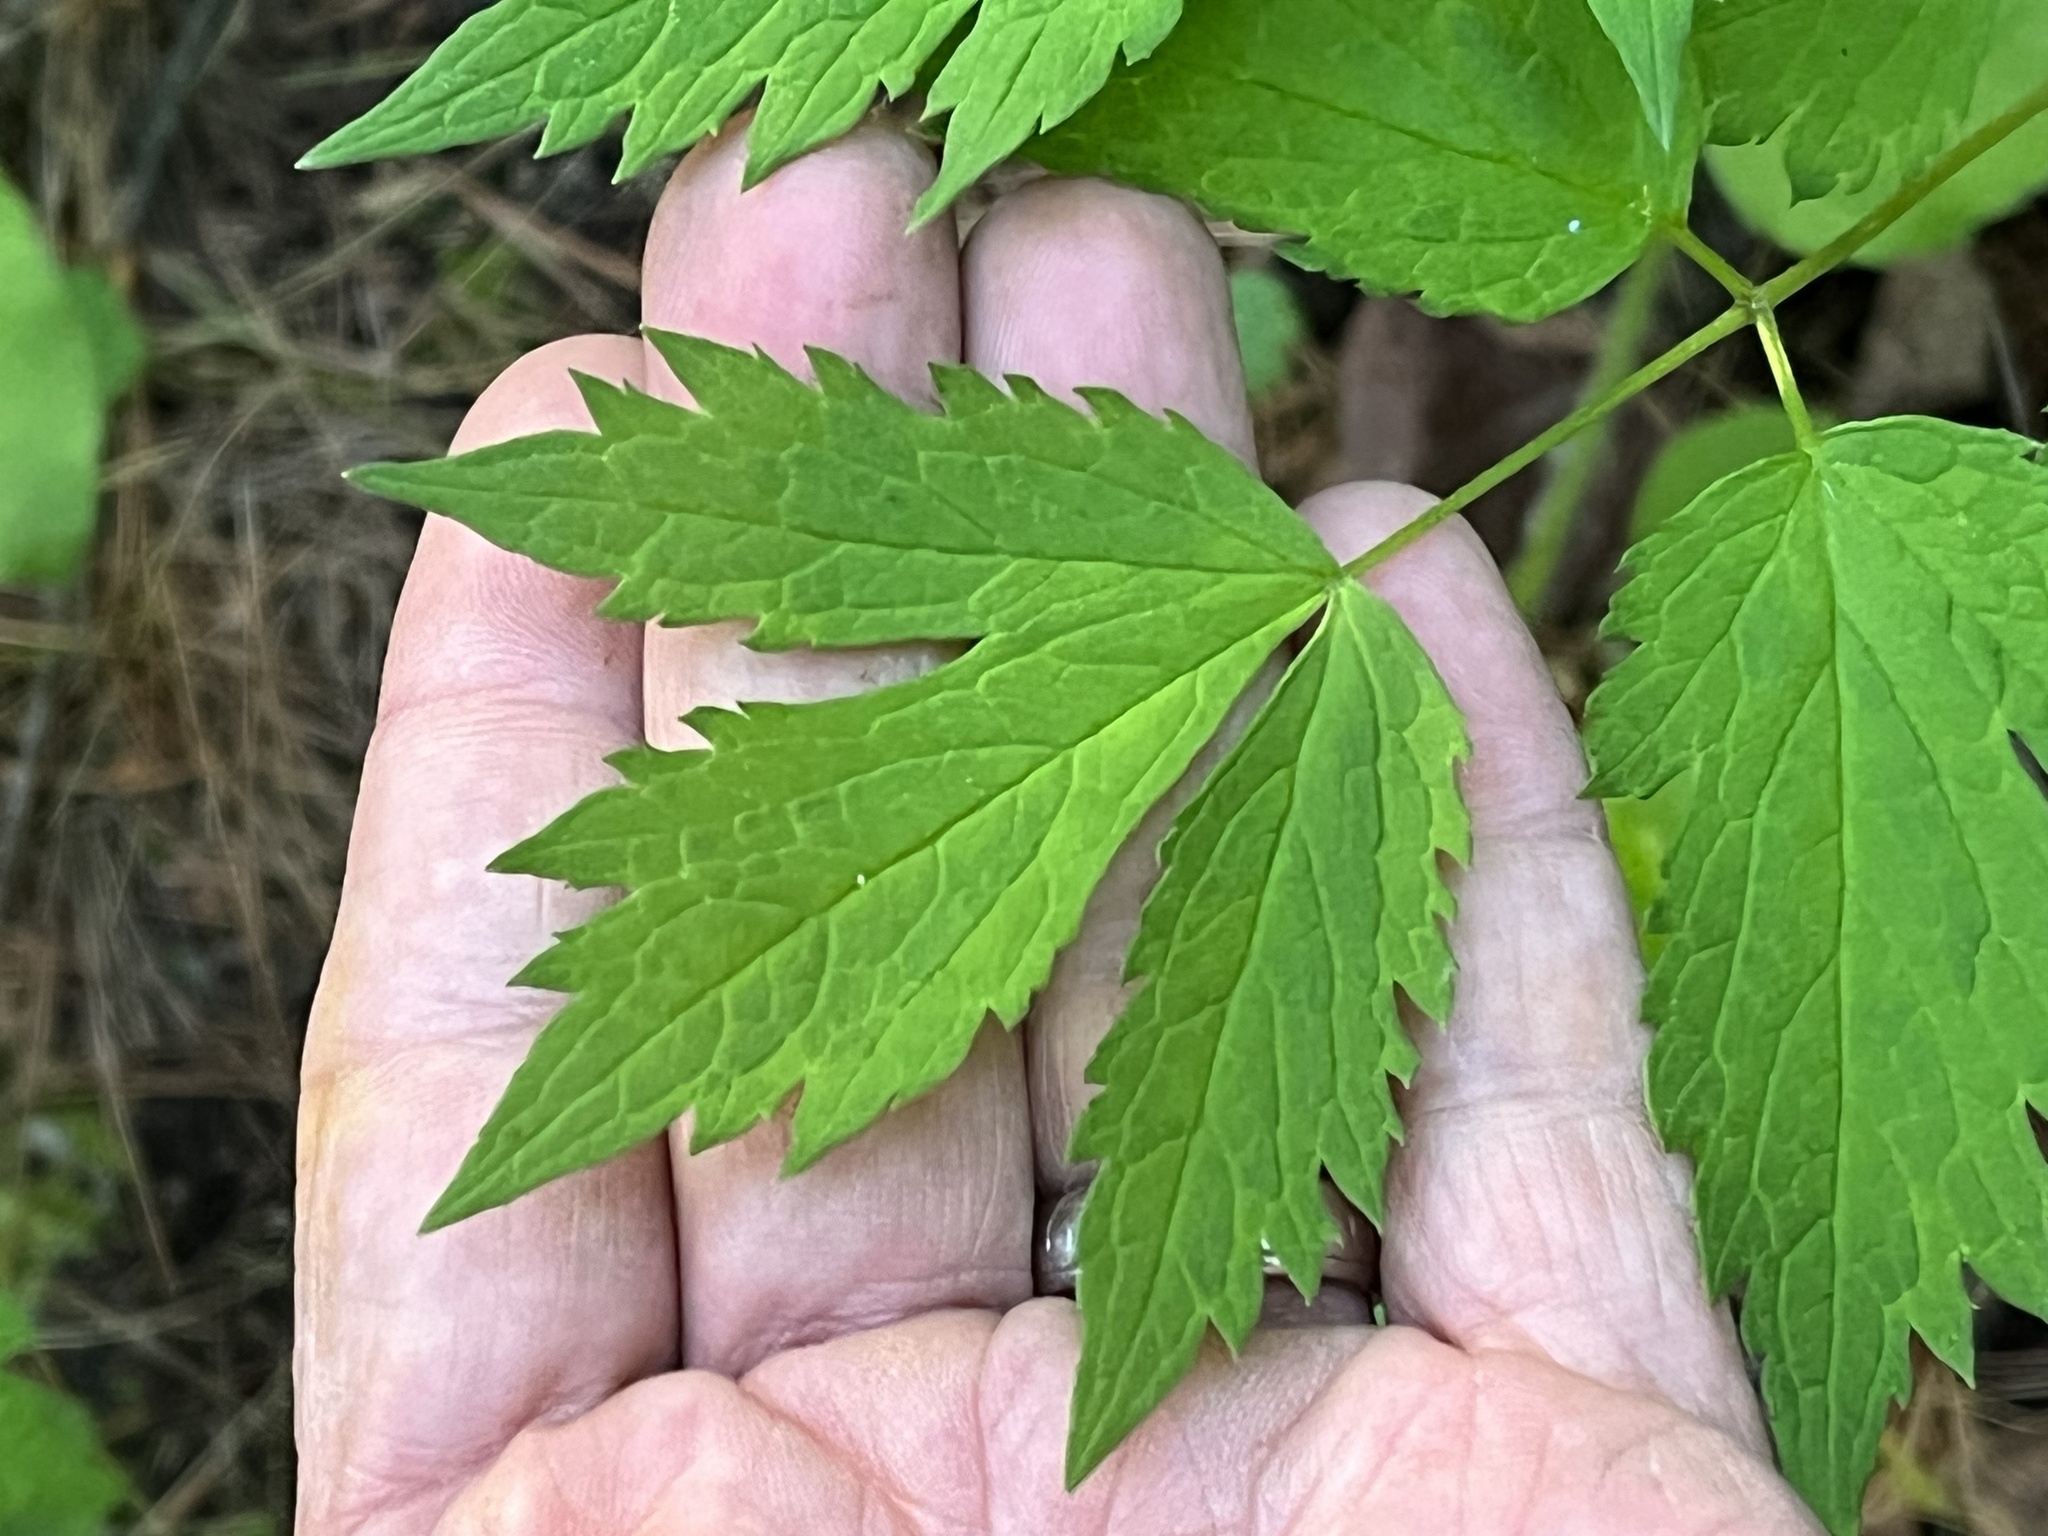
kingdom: Plantae
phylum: Tracheophyta
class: Magnoliopsida
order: Ranunculales
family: Ranunculaceae
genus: Actaea
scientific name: Actaea rubra
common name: Red baneberry
